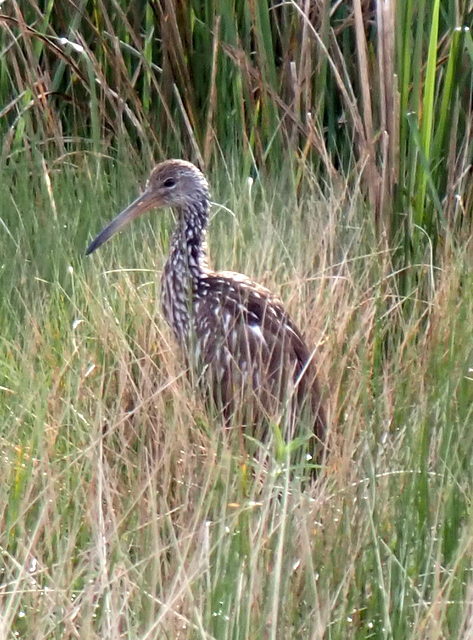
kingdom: Animalia
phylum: Chordata
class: Aves
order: Gruiformes
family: Aramidae
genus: Aramus
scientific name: Aramus guarauna
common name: Limpkin
